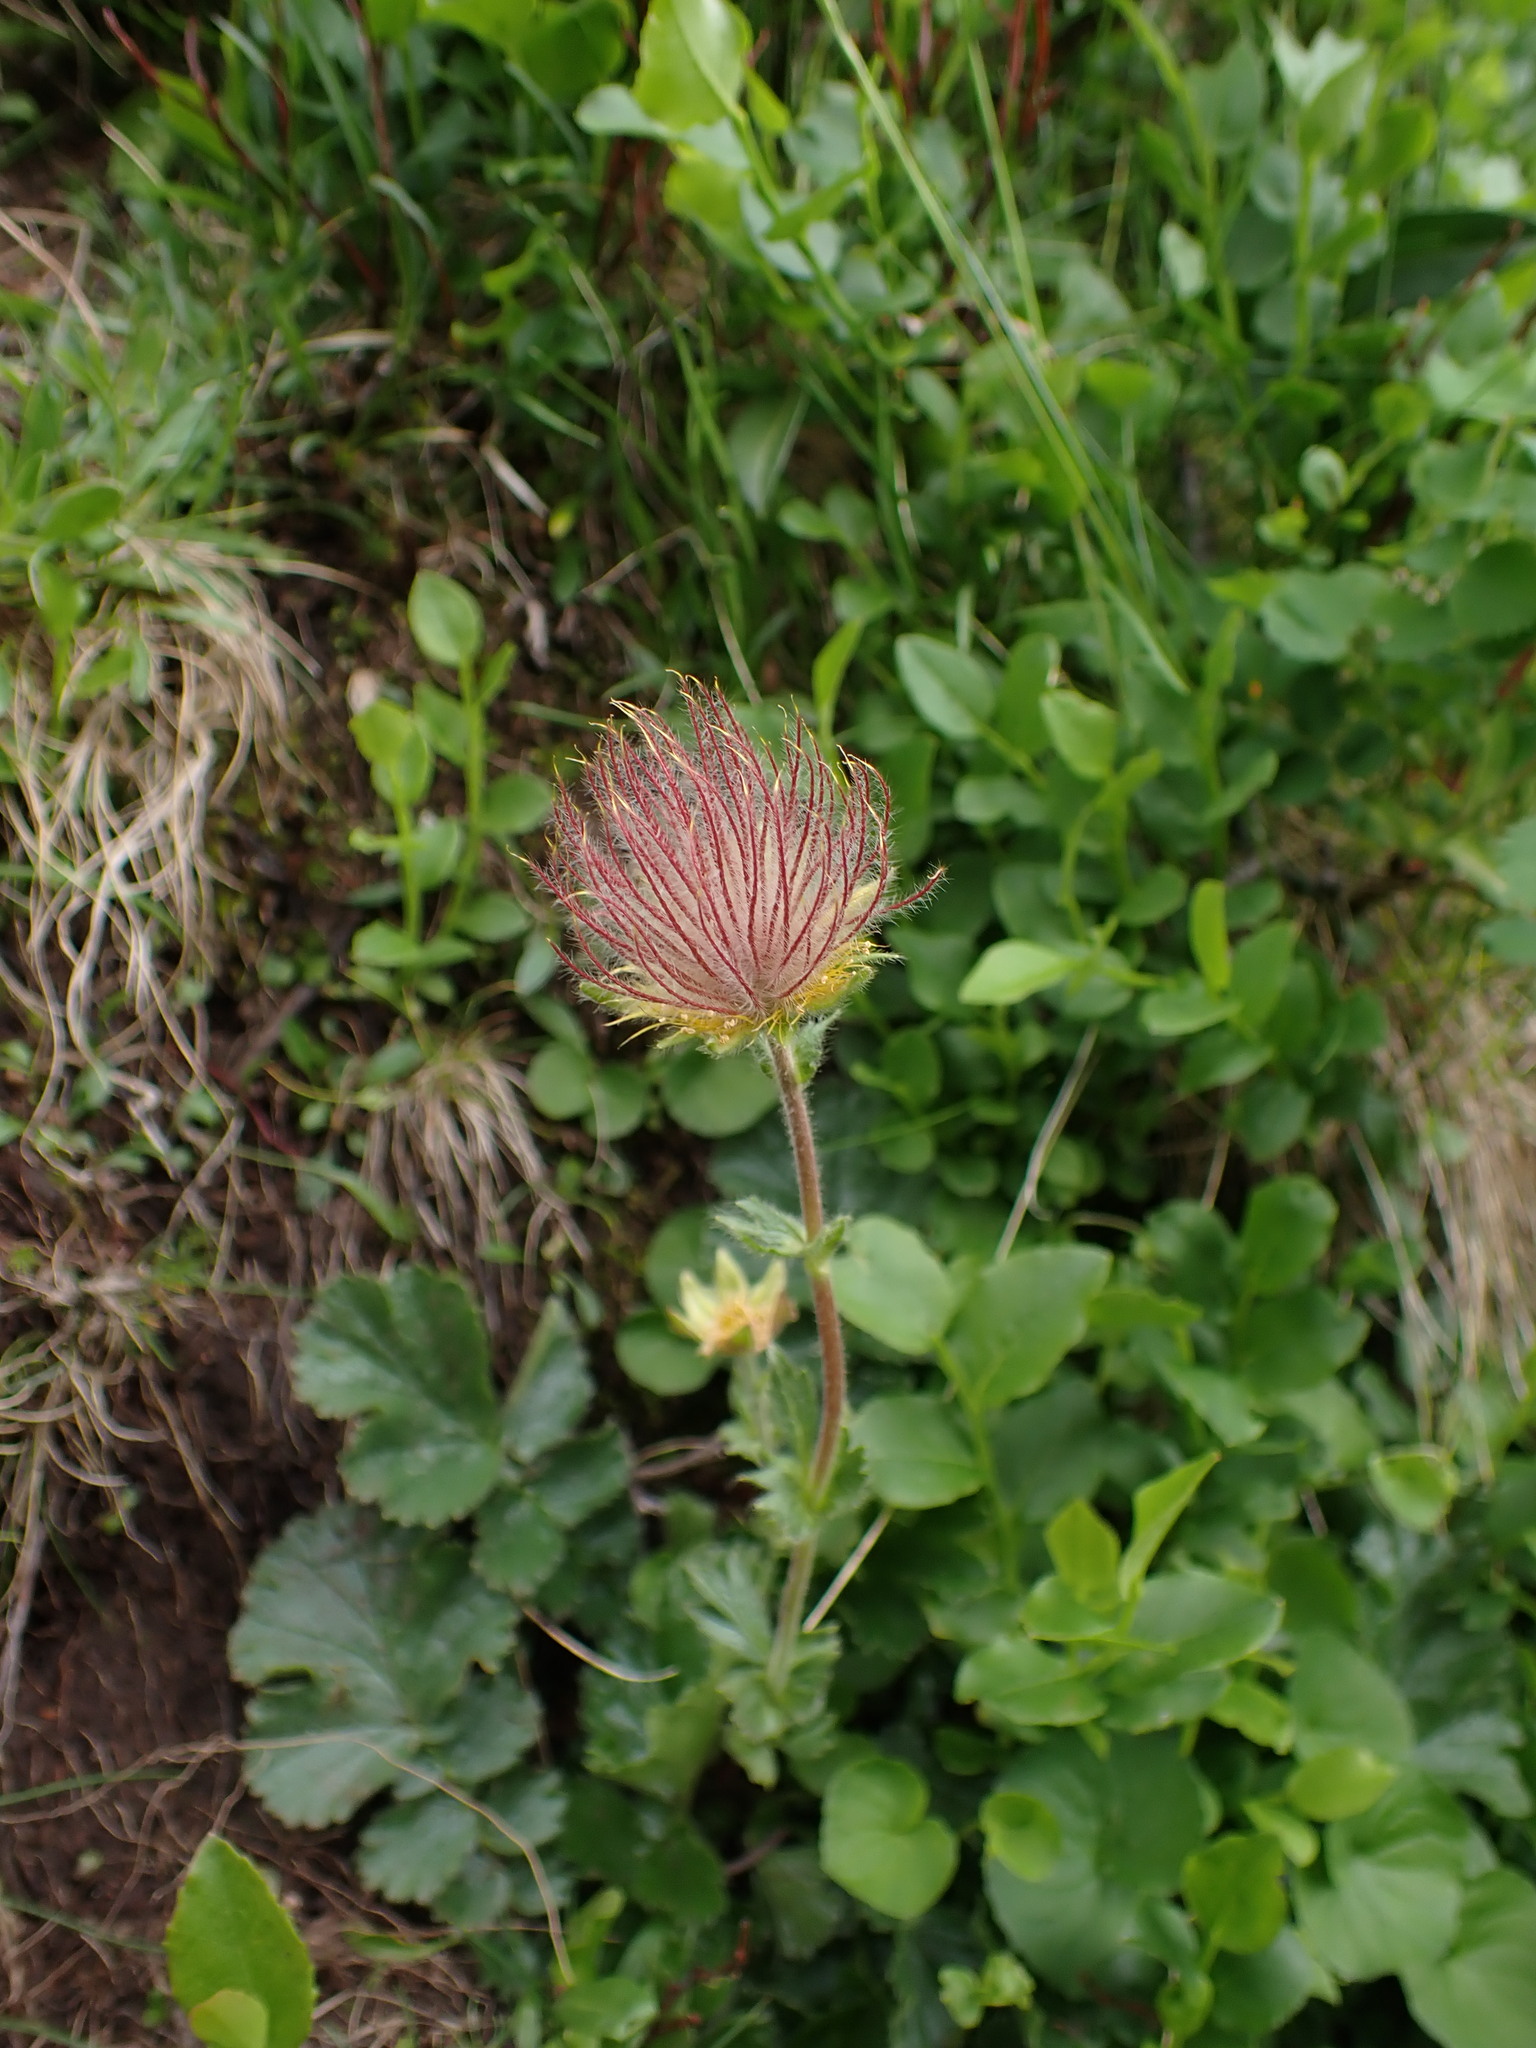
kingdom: Plantae
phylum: Tracheophyta
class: Magnoliopsida
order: Rosales
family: Rosaceae
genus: Geum
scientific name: Geum montanum
